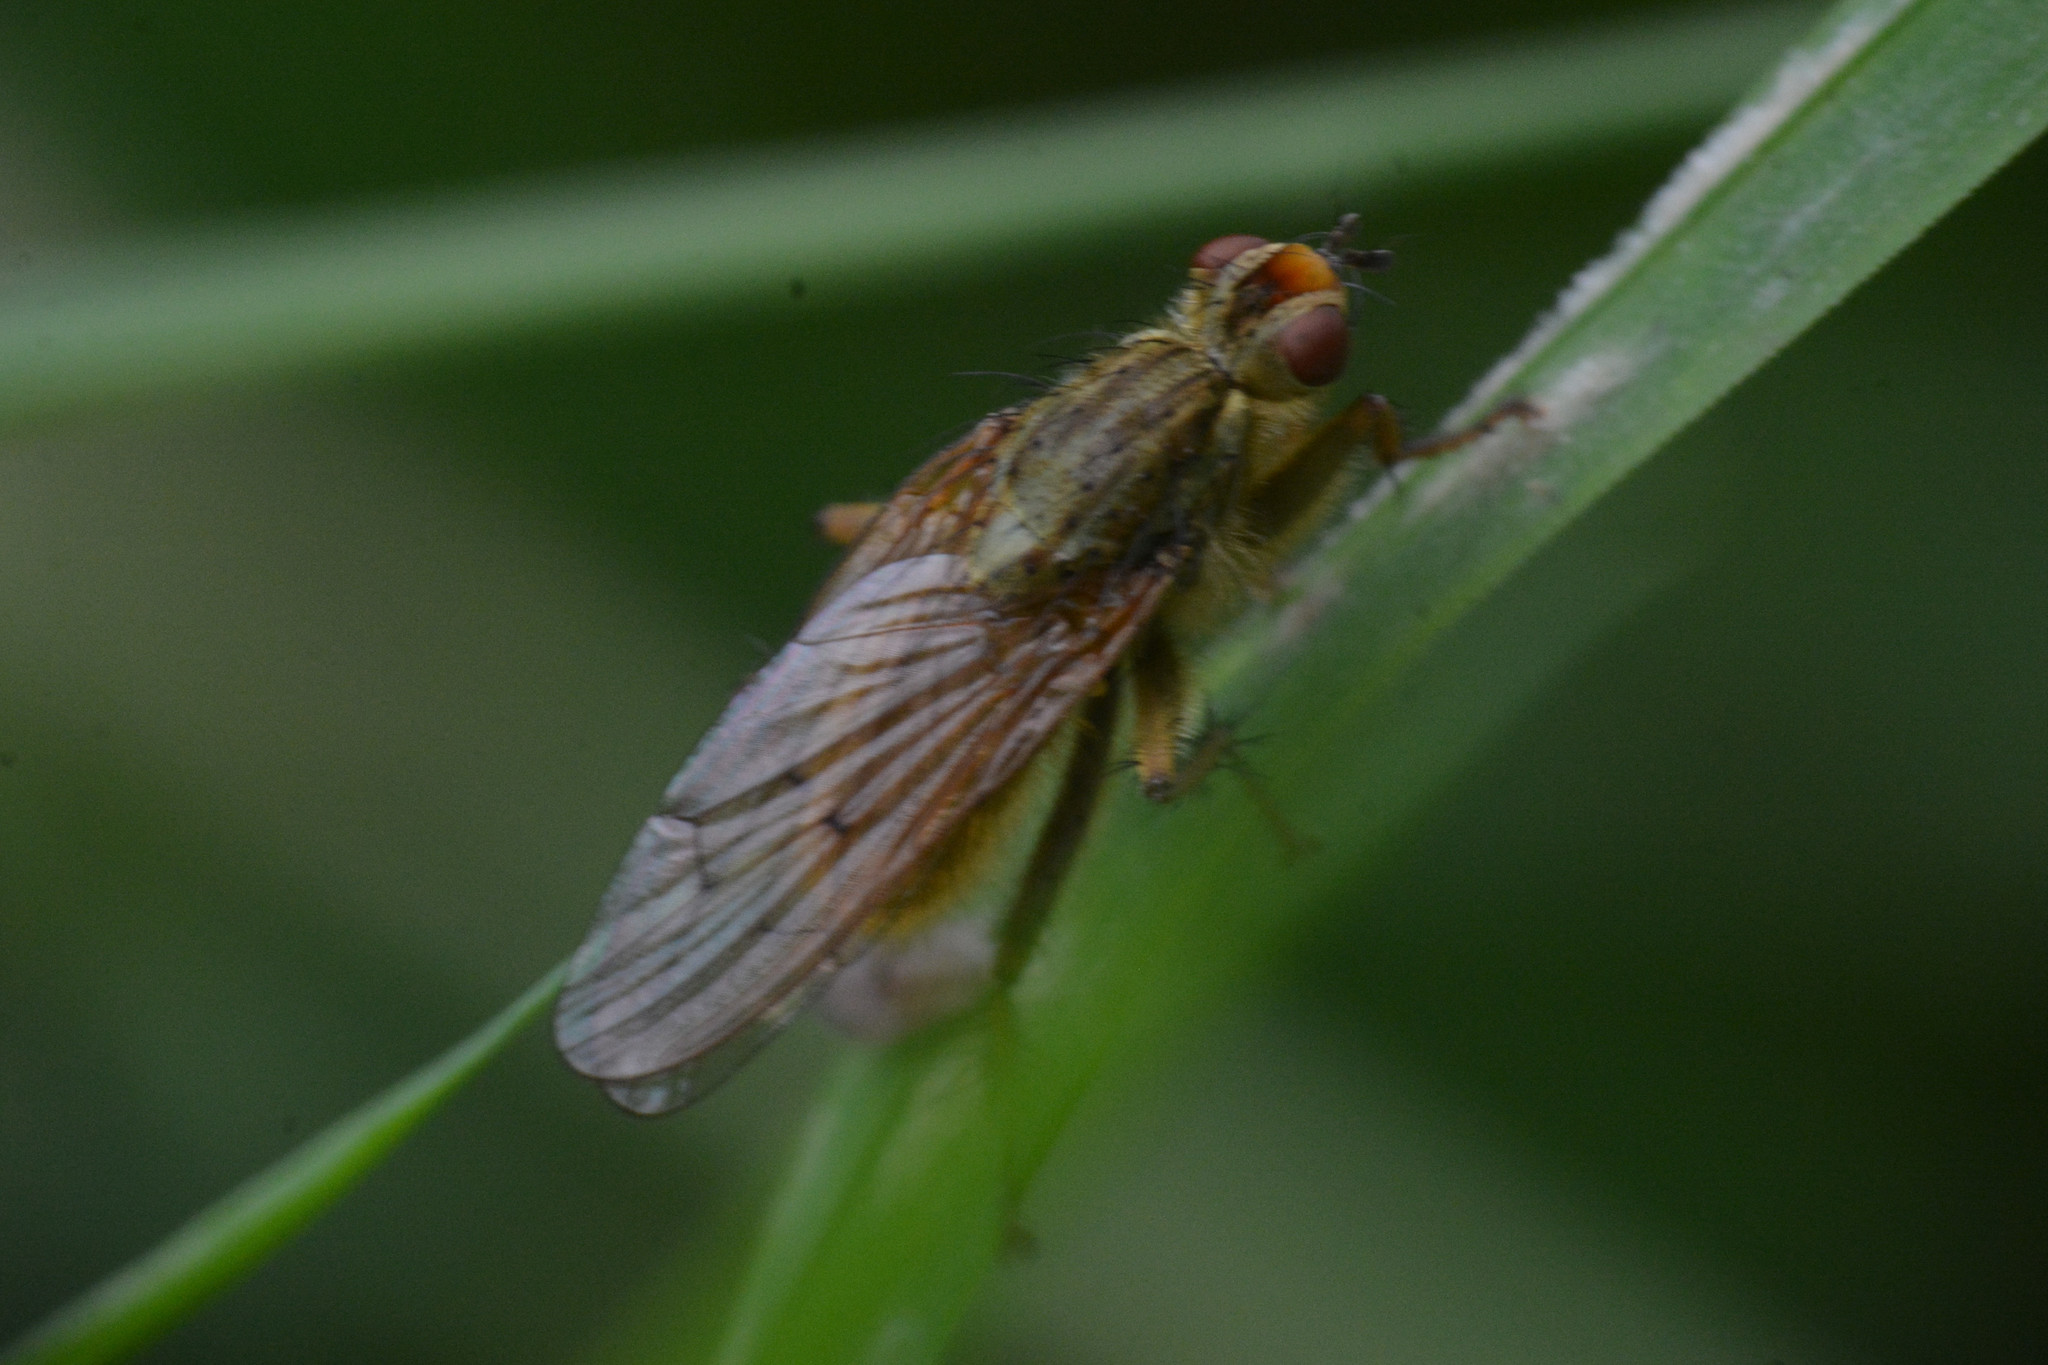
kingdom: Animalia
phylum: Arthropoda
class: Insecta
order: Diptera
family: Scathophagidae
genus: Scathophaga
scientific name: Scathophaga stercoraria
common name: Yellow dung fly
